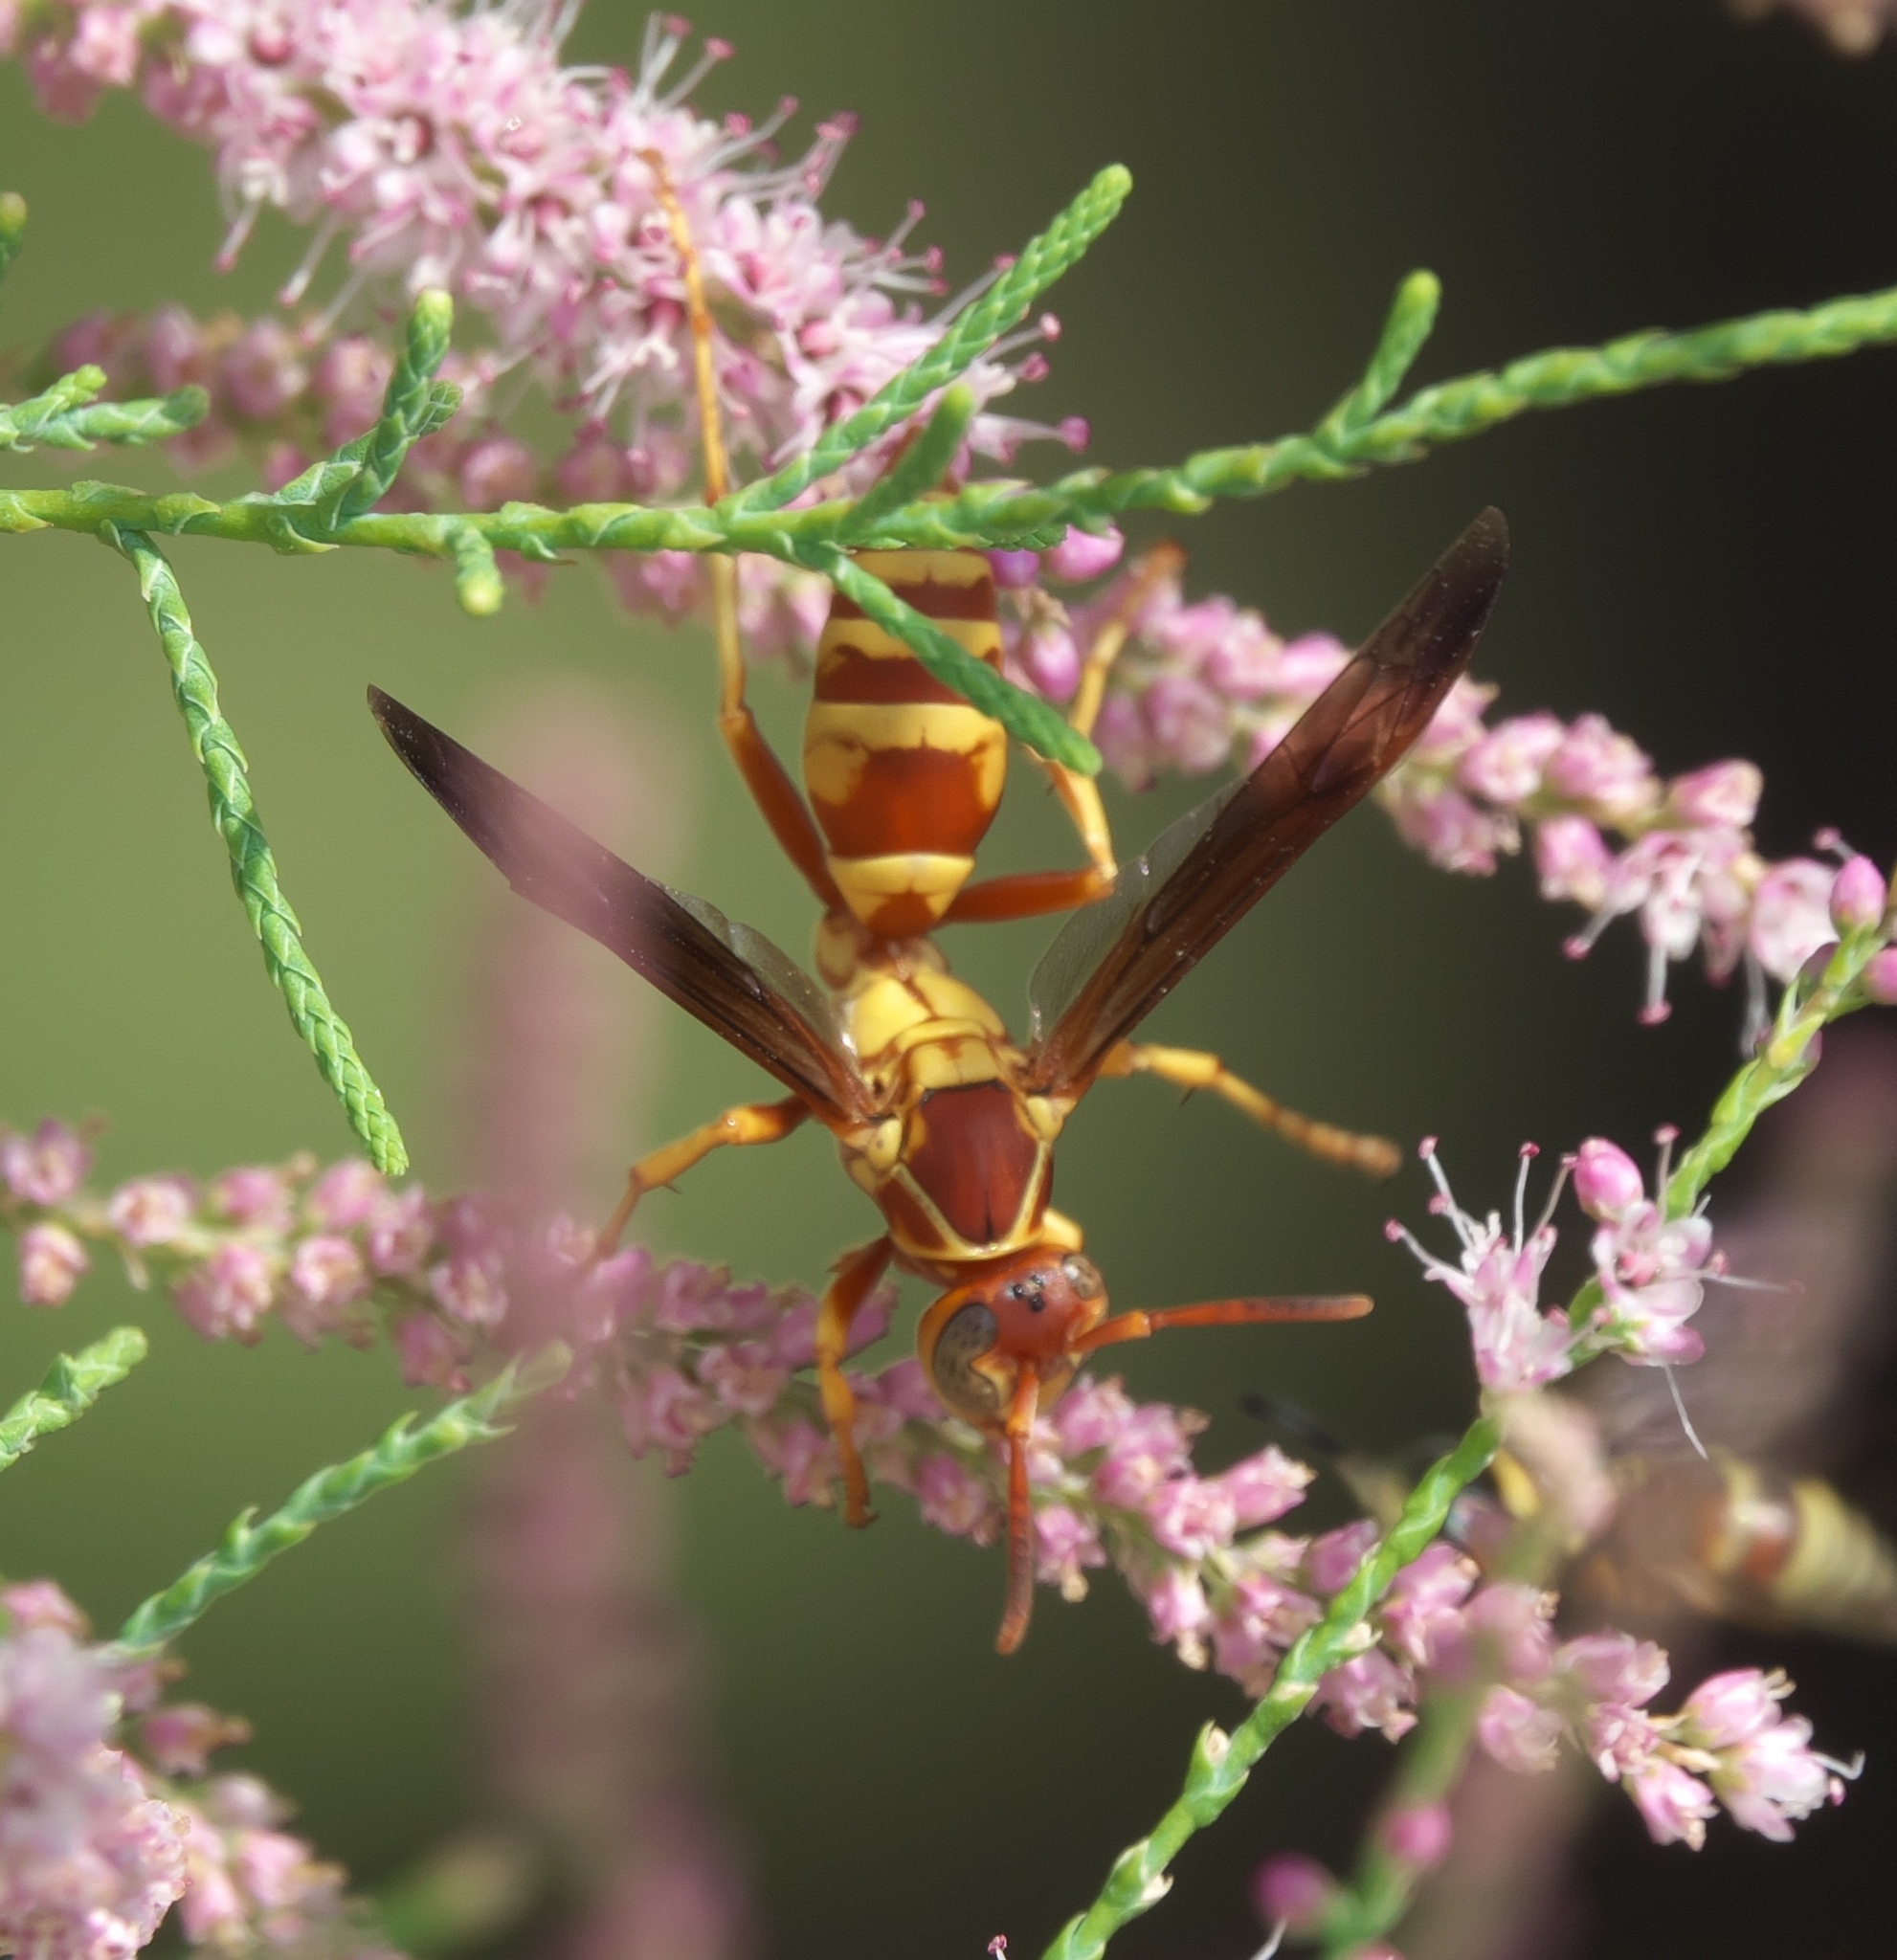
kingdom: Animalia
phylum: Arthropoda
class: Insecta
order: Hymenoptera
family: Eumenidae
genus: Polistes
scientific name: Polistes dorsalis
